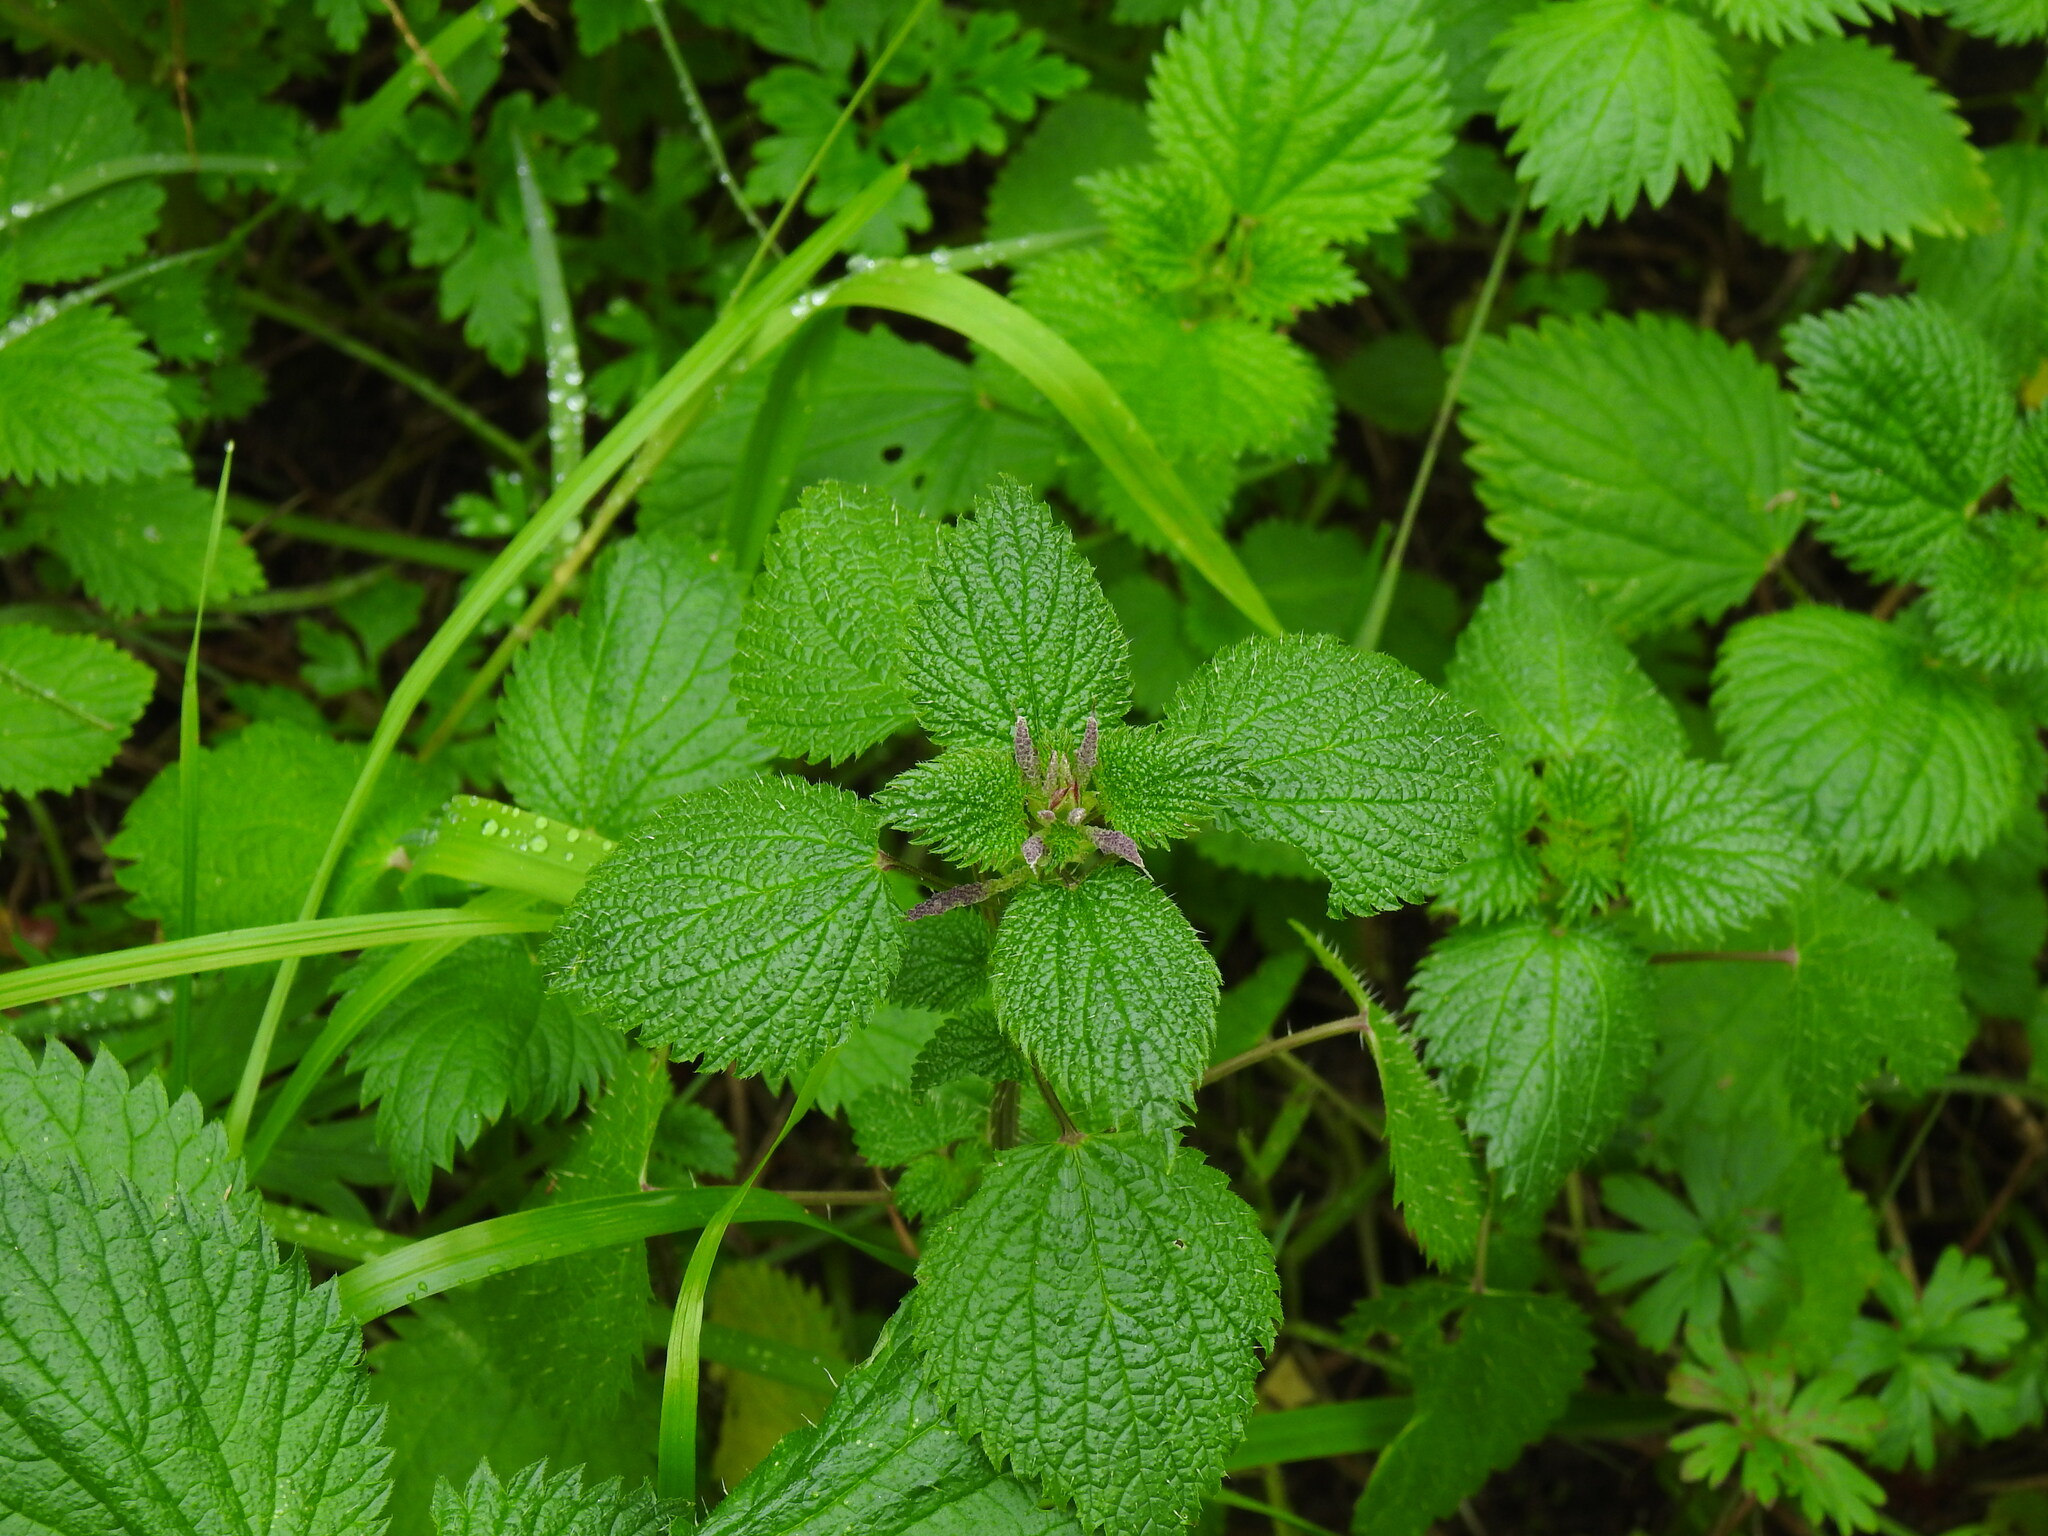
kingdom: Plantae
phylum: Tracheophyta
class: Magnoliopsida
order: Rosales
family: Urticaceae
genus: Urtica
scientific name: Urtica membranacea
